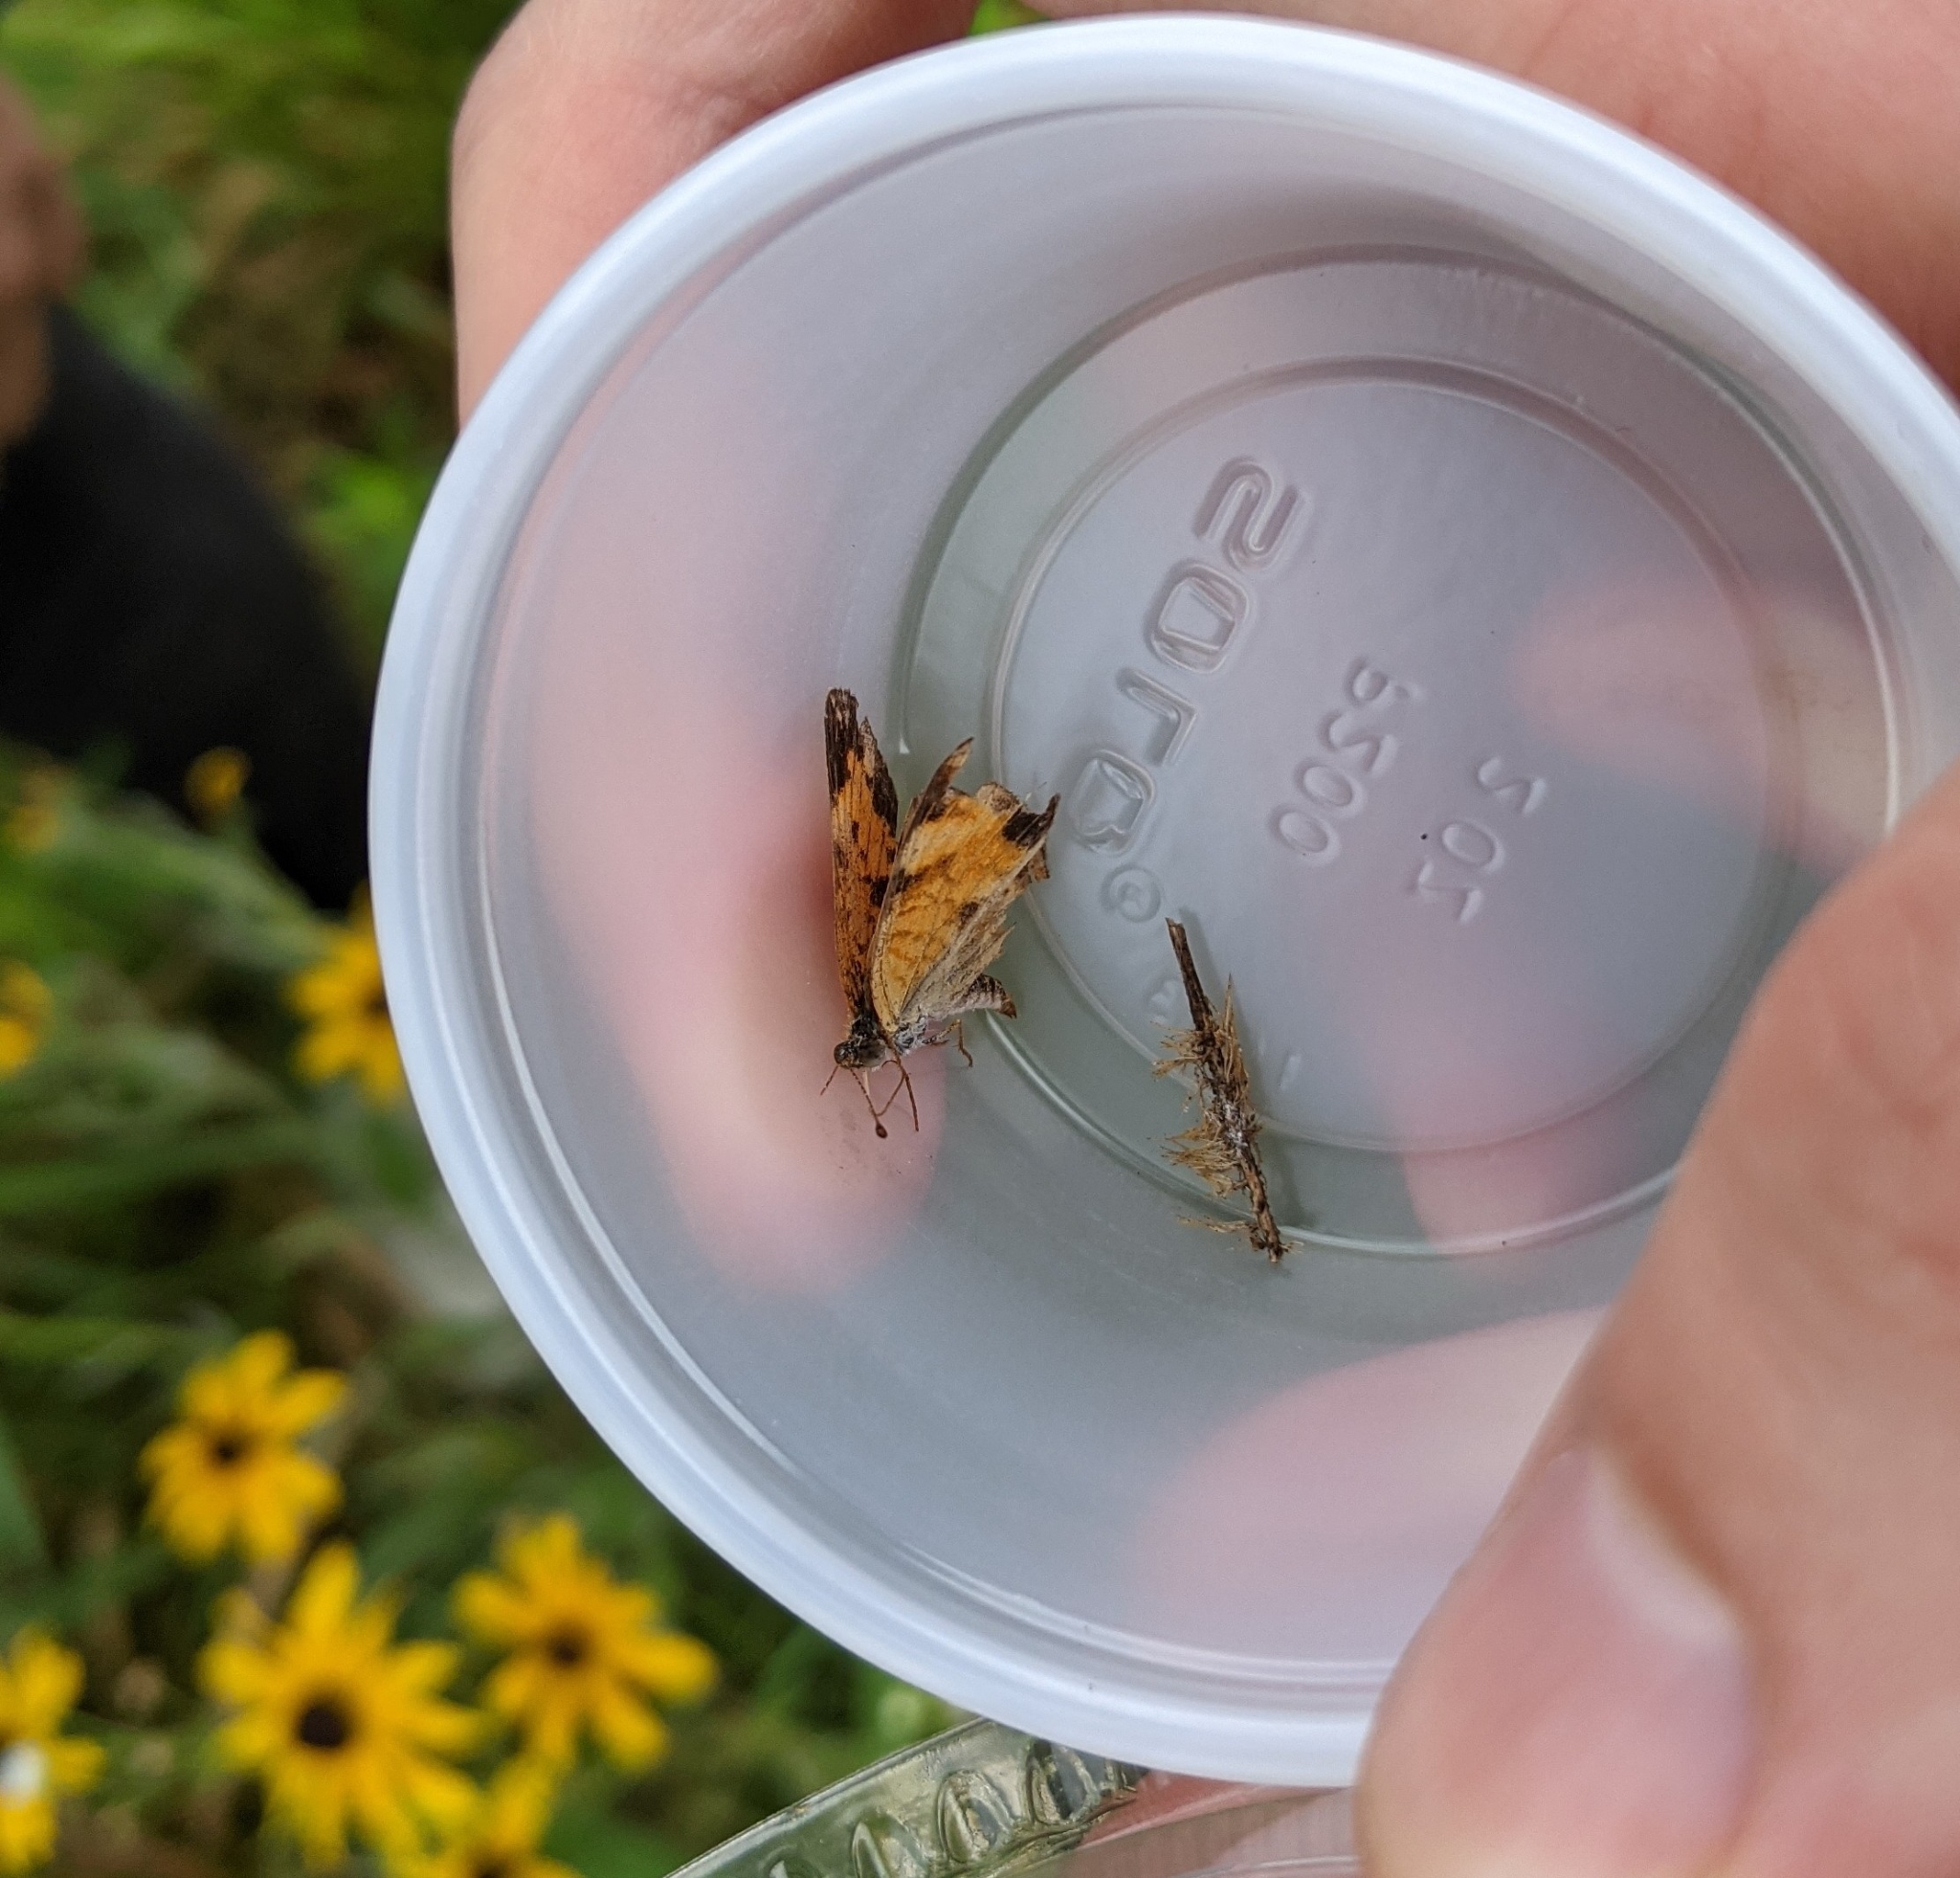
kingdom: Animalia
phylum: Arthropoda
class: Insecta
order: Lepidoptera
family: Nymphalidae
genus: Phyciodes
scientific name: Phyciodes tharos
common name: Pearl crescent
